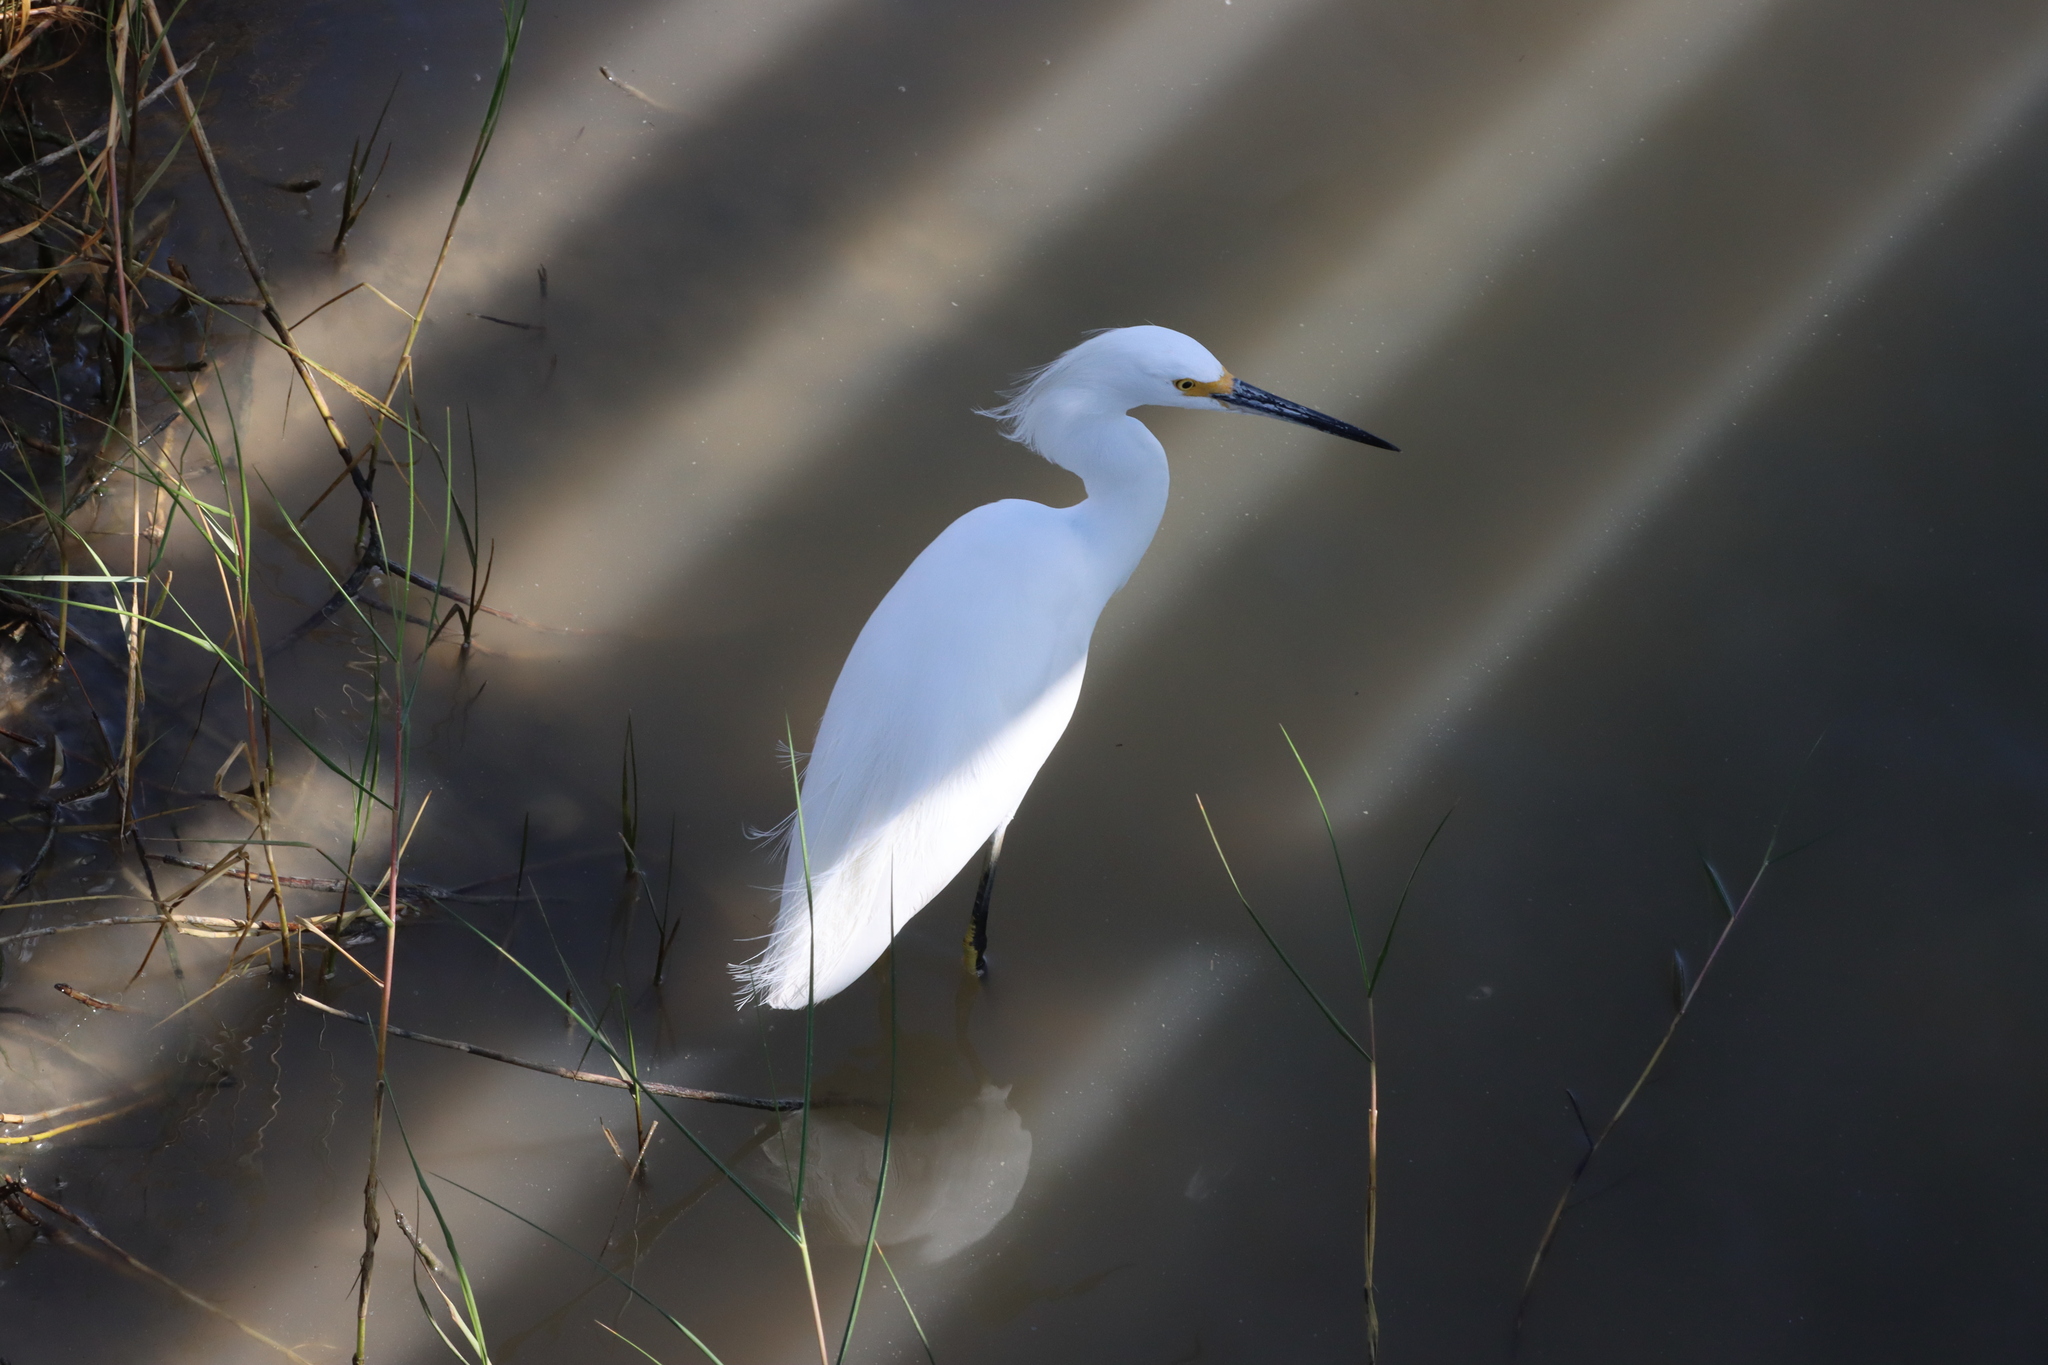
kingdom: Animalia
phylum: Chordata
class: Aves
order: Pelecaniformes
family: Ardeidae
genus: Egretta
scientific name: Egretta thula
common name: Snowy egret
